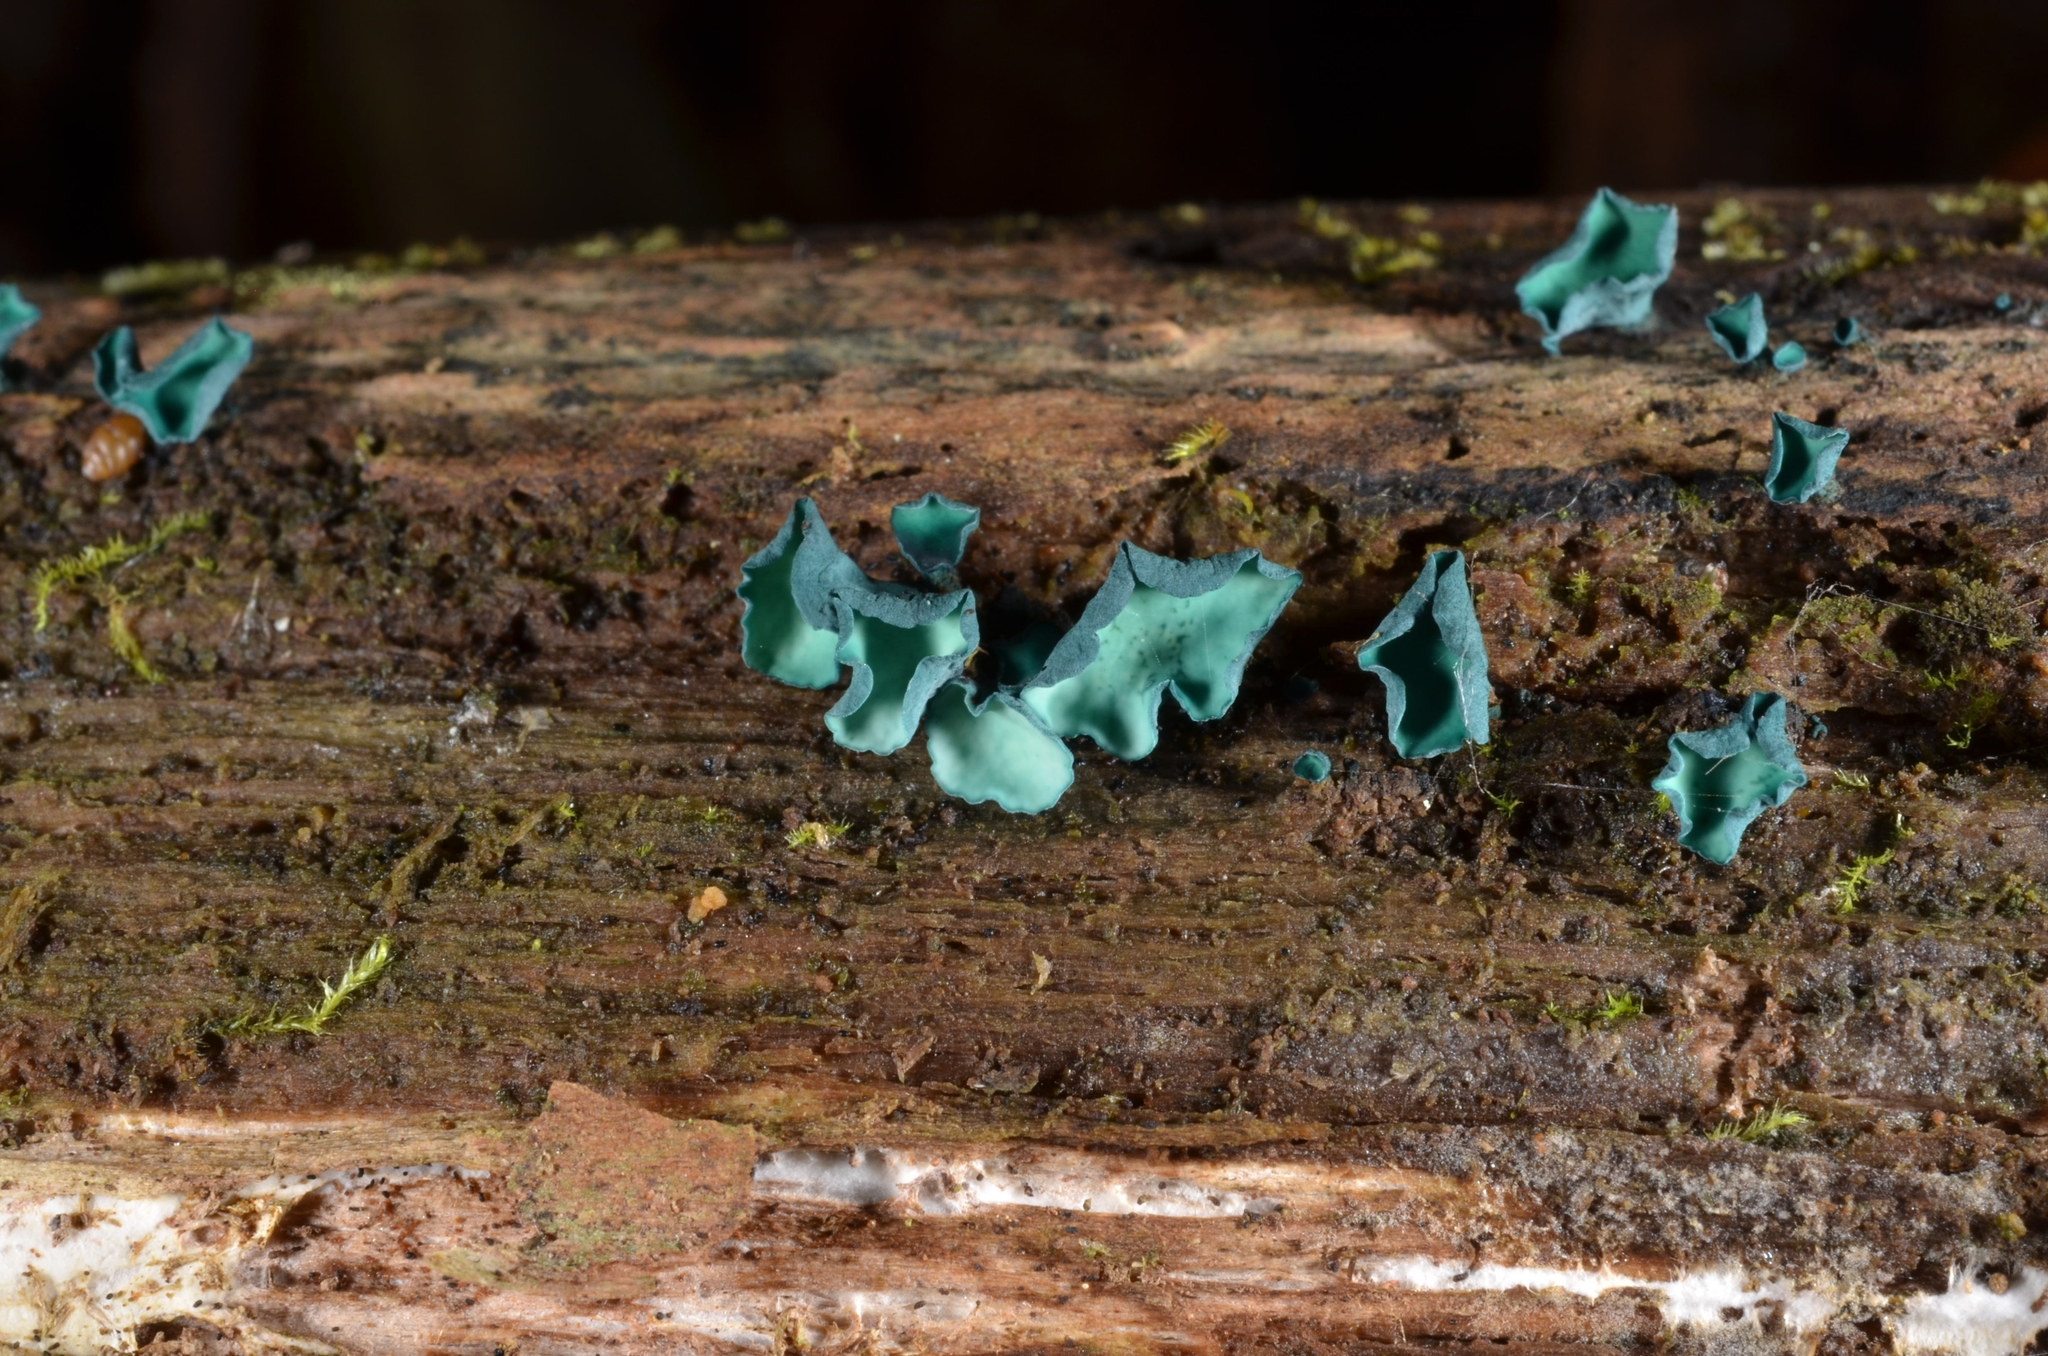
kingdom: Fungi
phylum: Ascomycota
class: Leotiomycetes
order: Helotiales
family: Chlorociboriaceae
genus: Chlorociboria
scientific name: Chlorociboria aeruginascens
